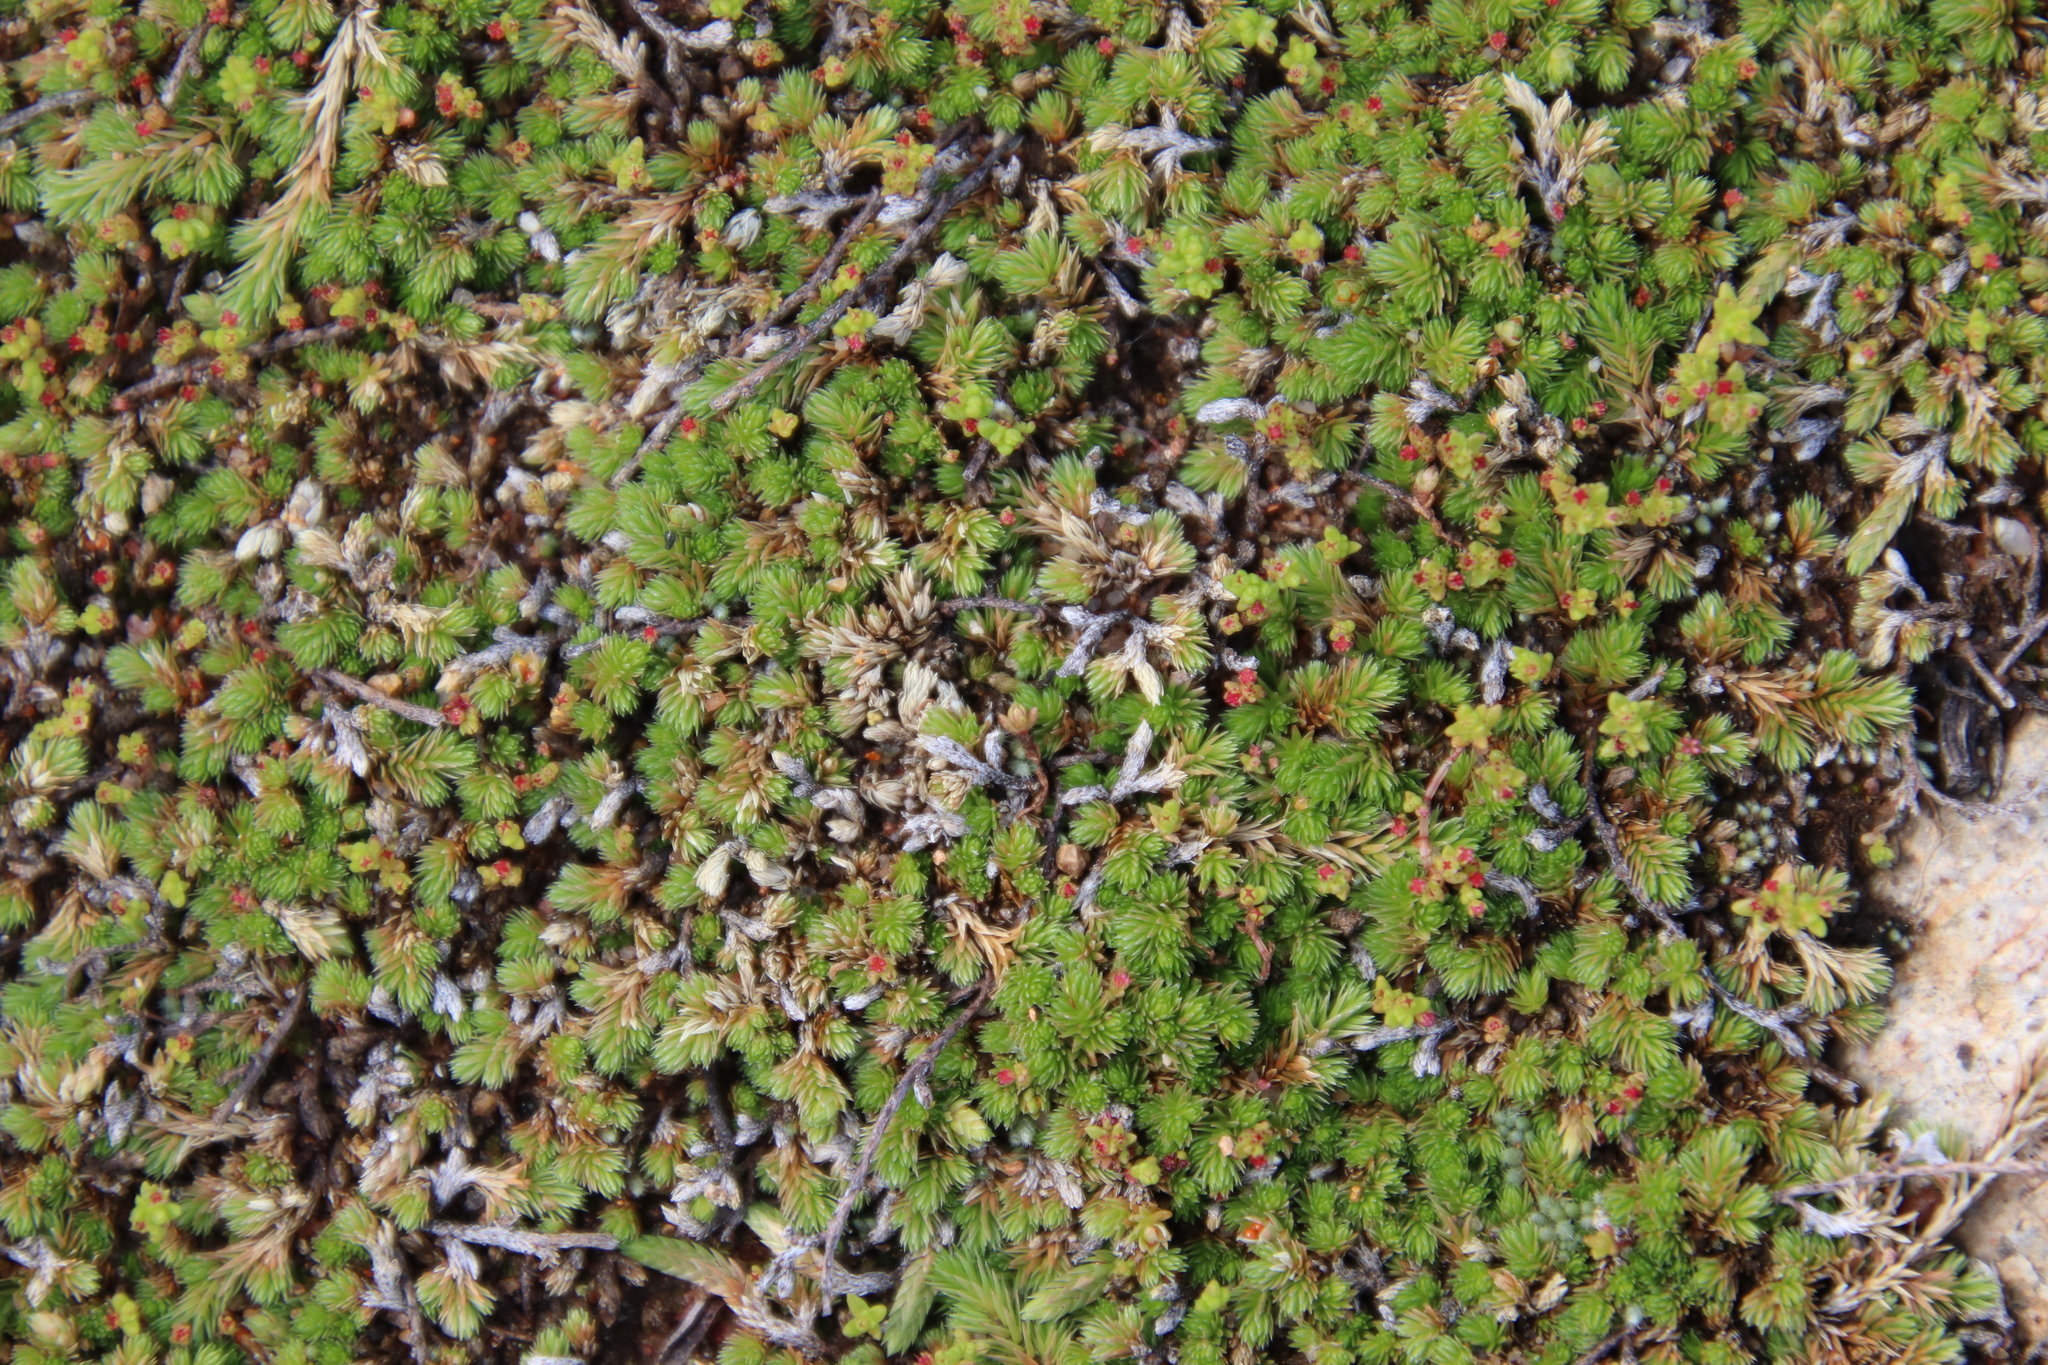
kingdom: Plantae
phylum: Tracheophyta
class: Lycopodiopsida
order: Selaginellales
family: Selaginellaceae
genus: Selaginella
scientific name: Selaginella cinerascens
